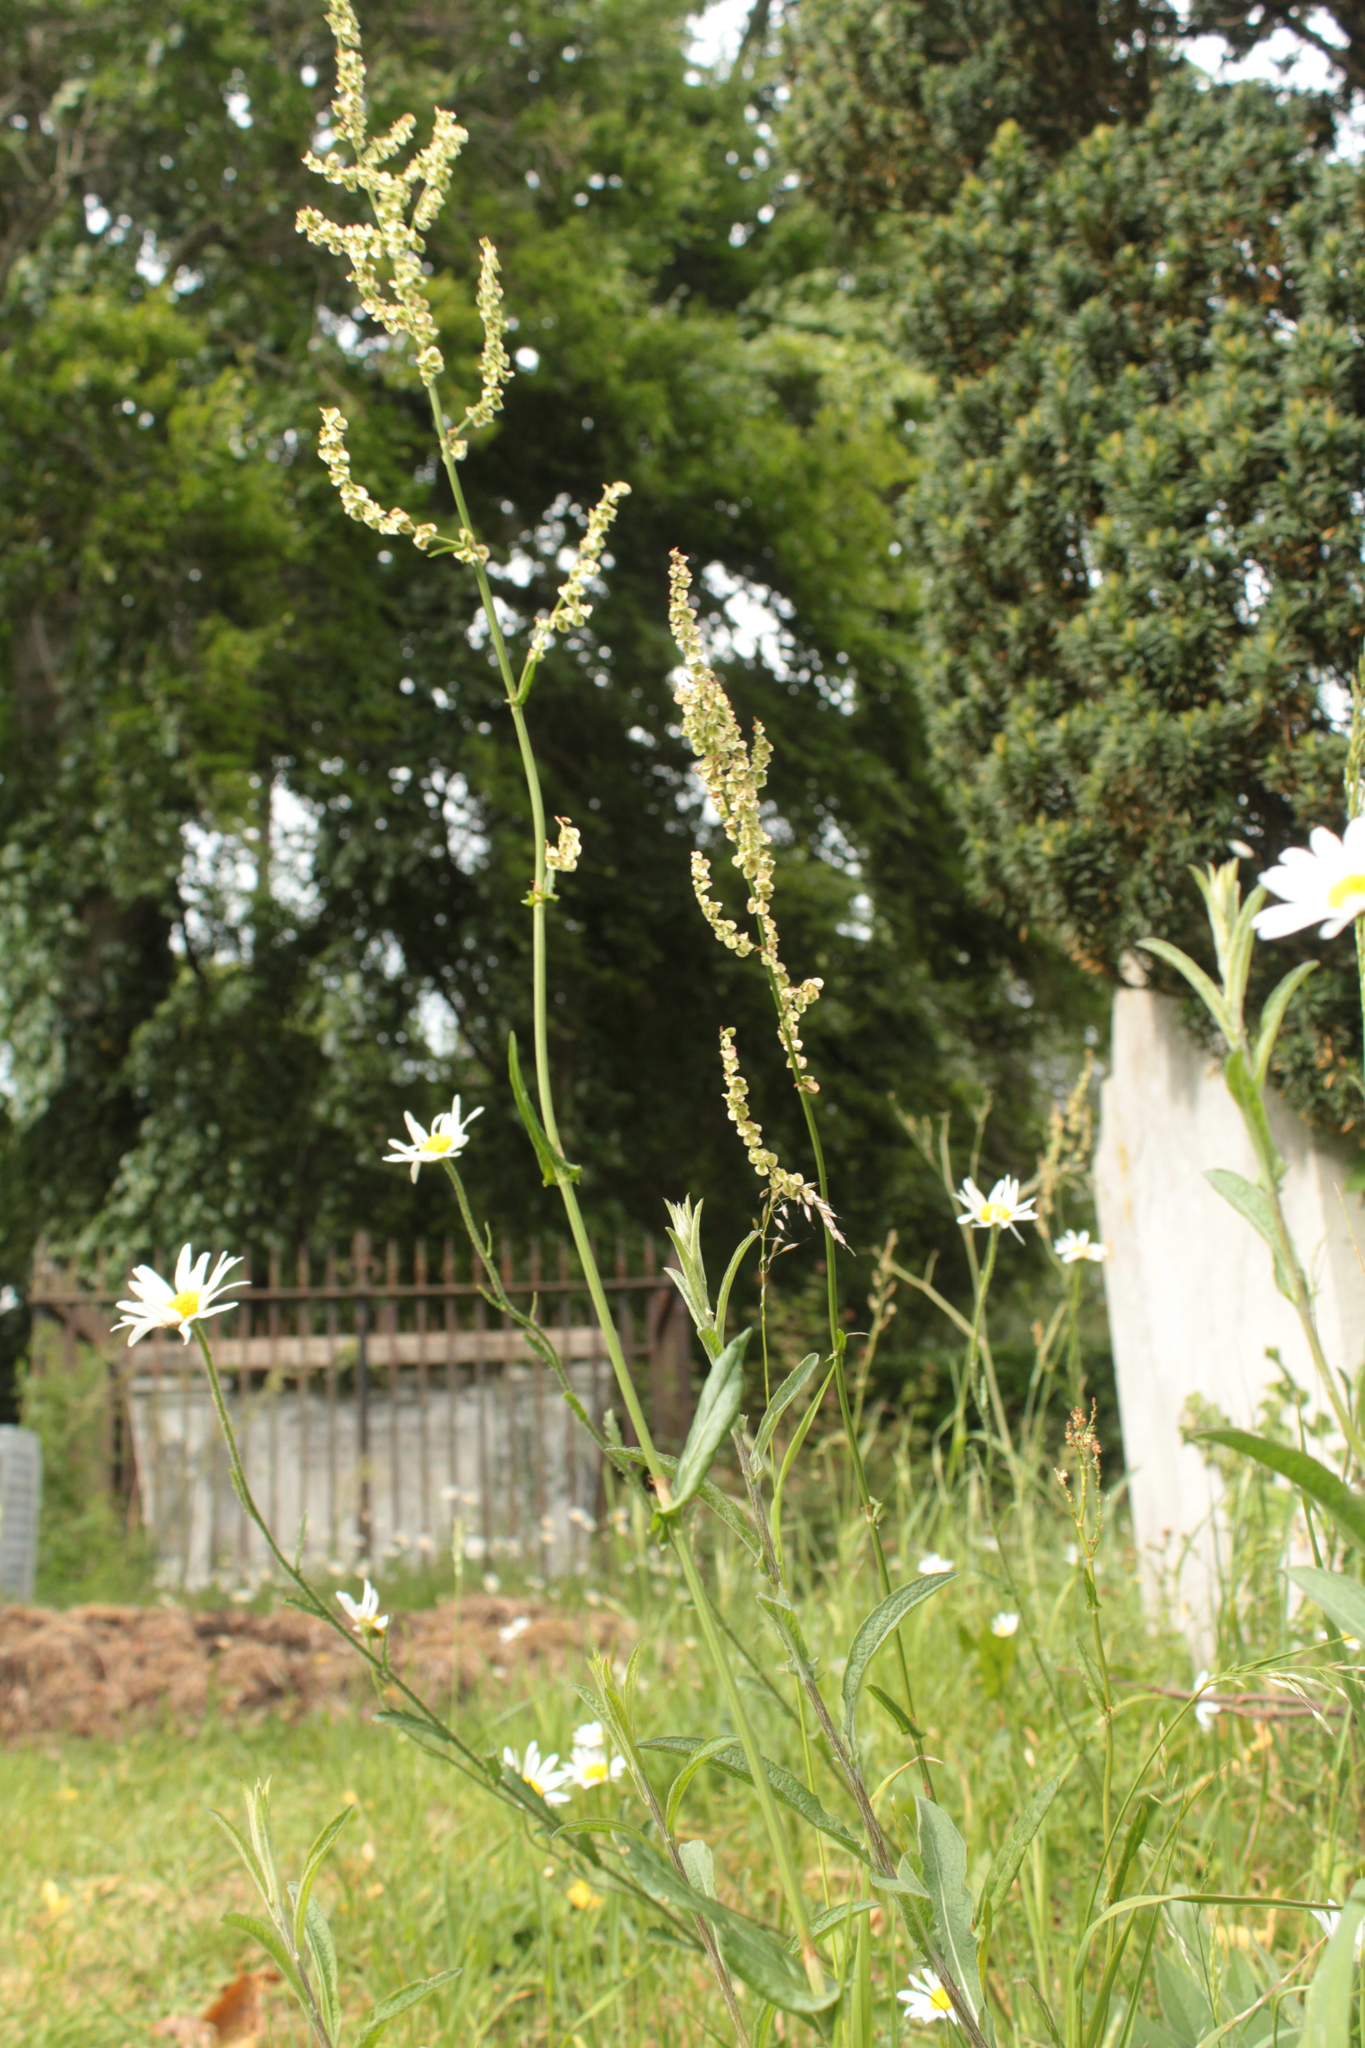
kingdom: Plantae
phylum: Tracheophyta
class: Magnoliopsida
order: Caryophyllales
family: Polygonaceae
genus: Rumex
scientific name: Rumex acetosa
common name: Garden sorrel
